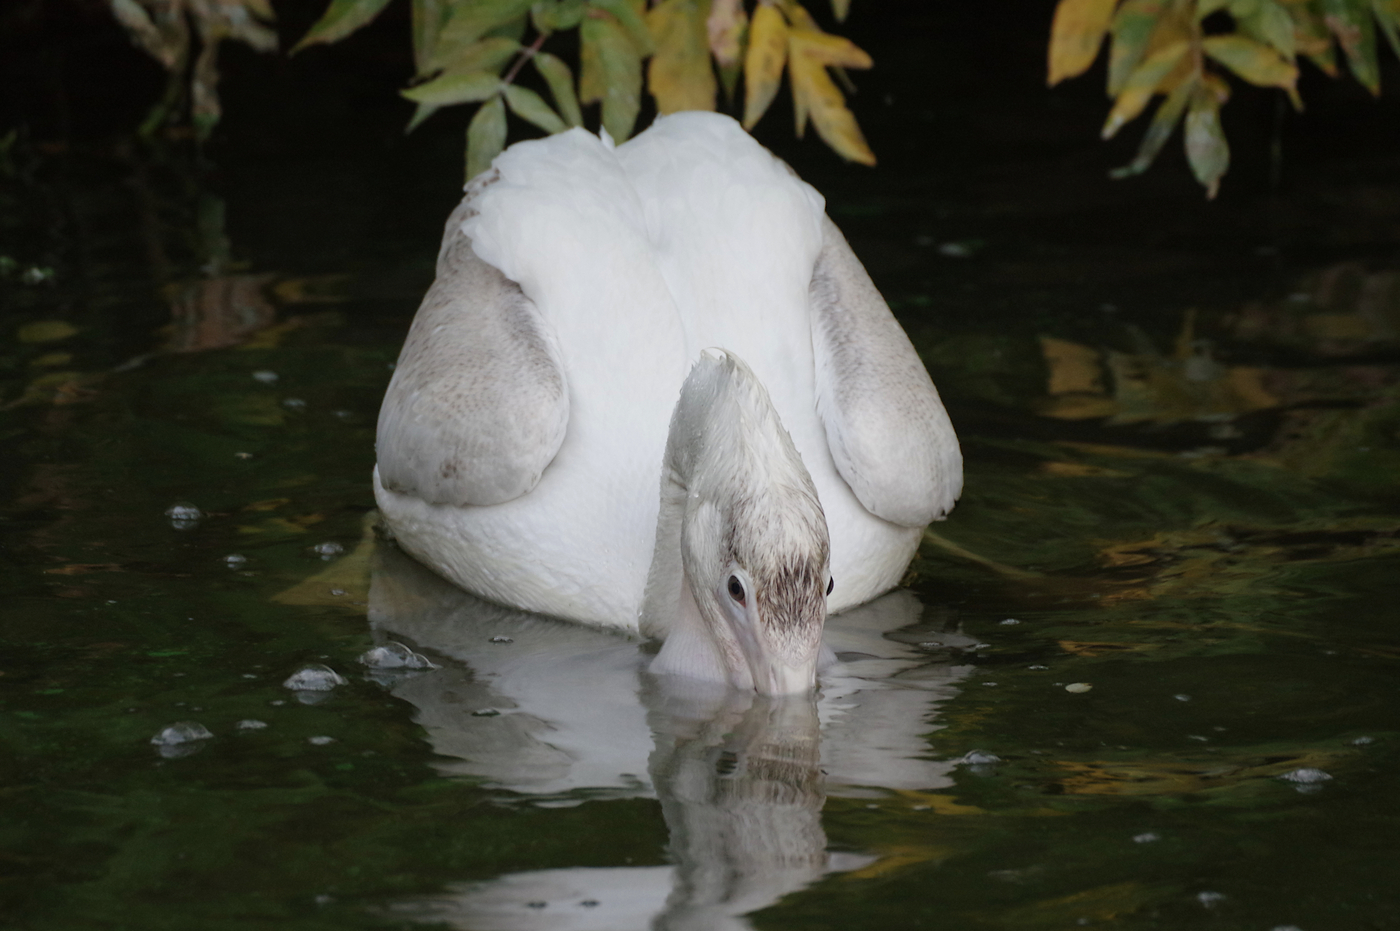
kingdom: Animalia
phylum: Chordata
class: Aves
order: Pelecaniformes
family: Pelecanidae
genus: Pelecanus
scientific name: Pelecanus erythrorhynchos
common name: American white pelican
